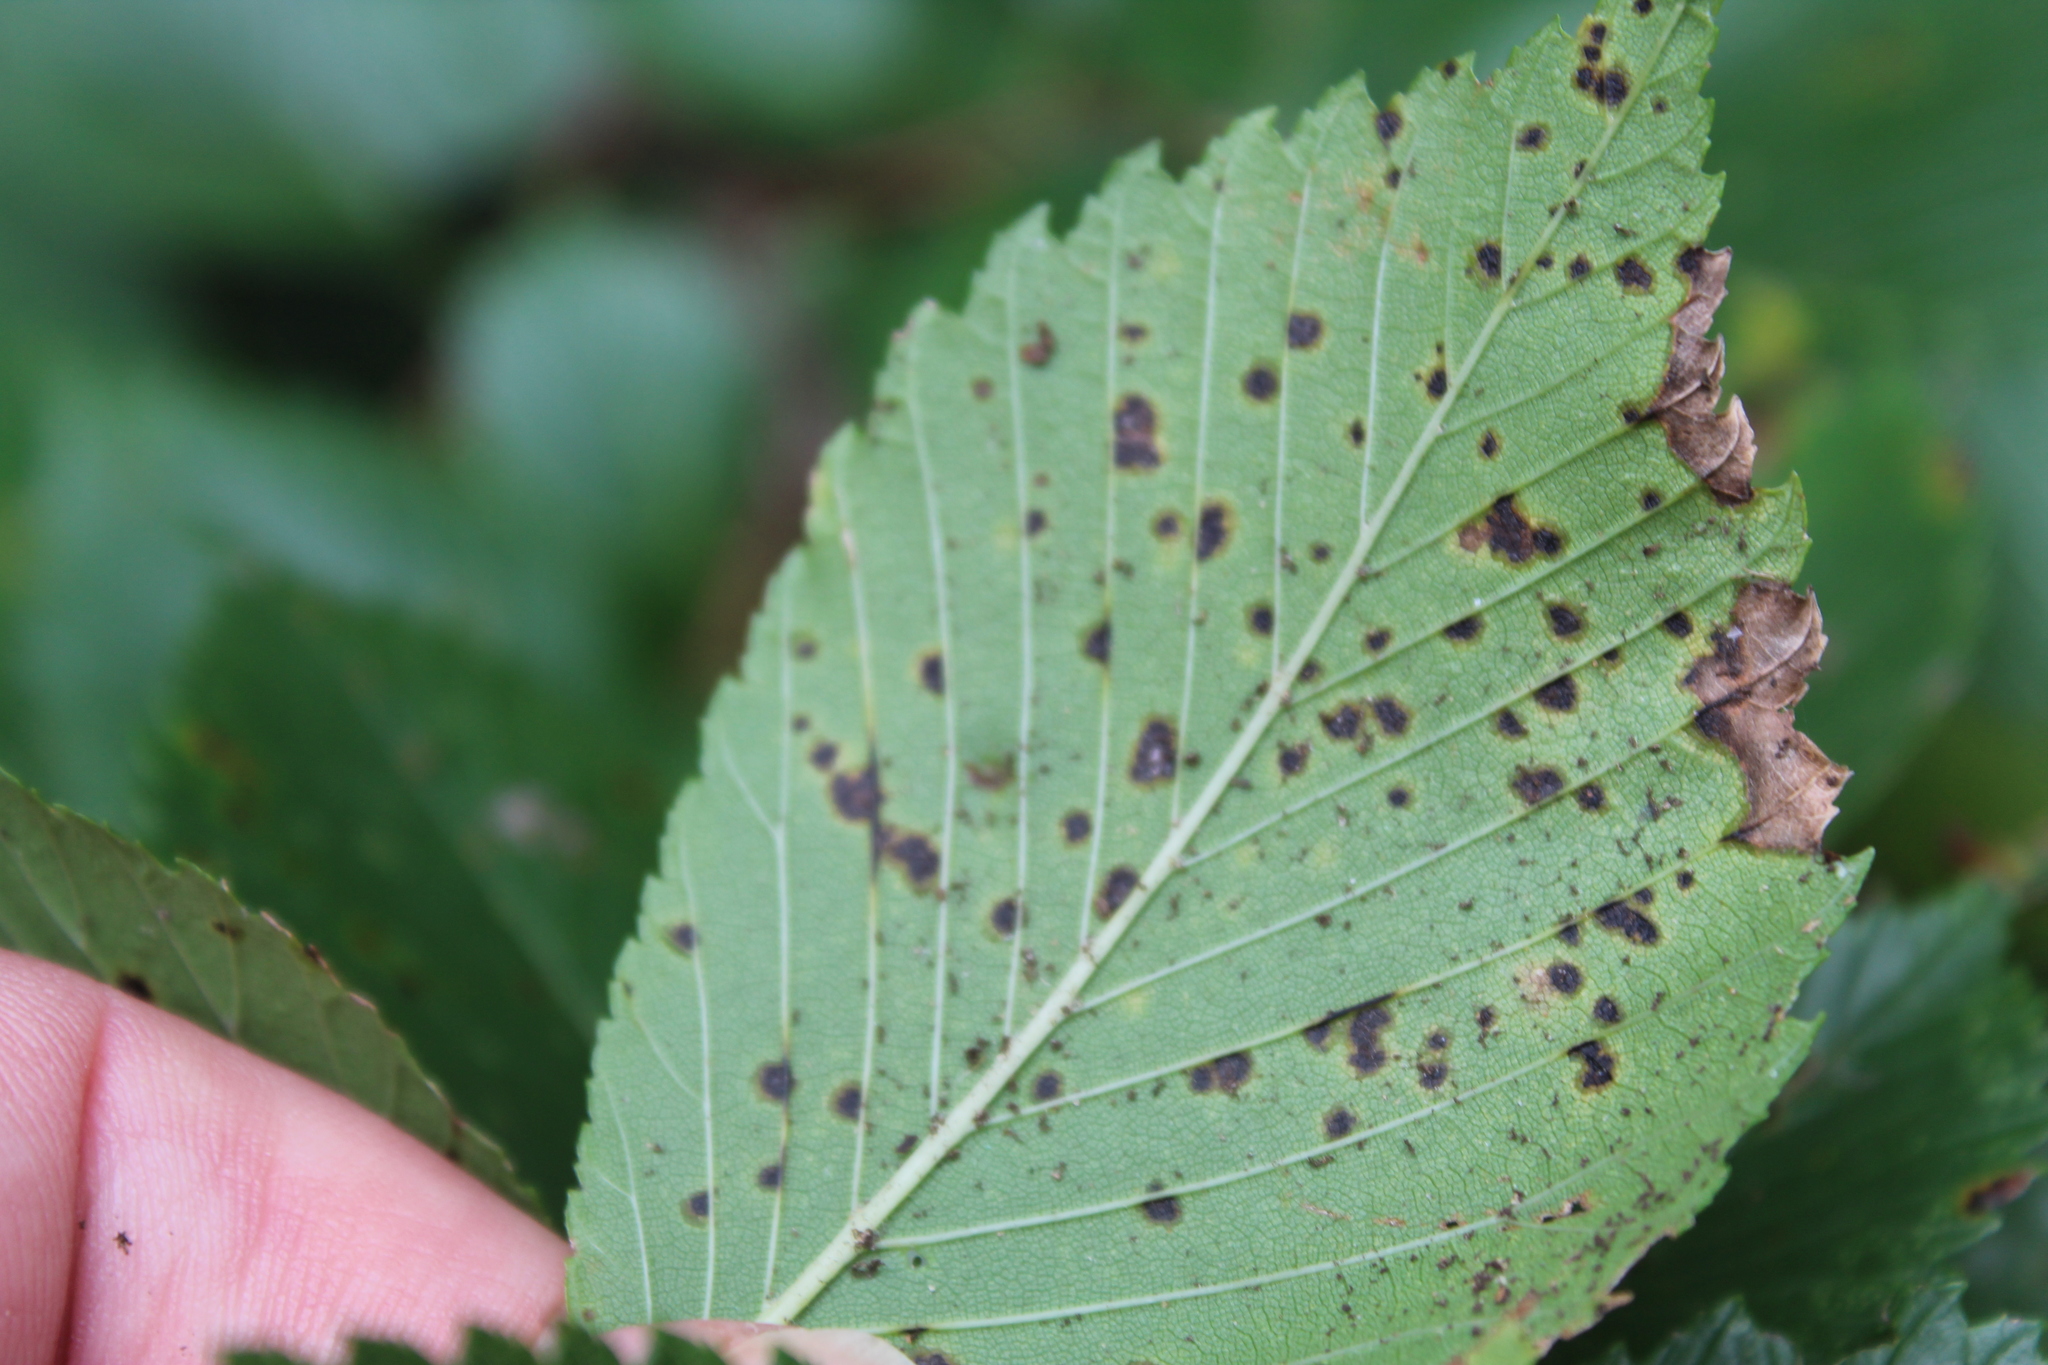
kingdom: Animalia
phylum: Arthropoda
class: Arachnida
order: Trombidiformes
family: Eriophyidae
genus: Aceria
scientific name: Aceria
